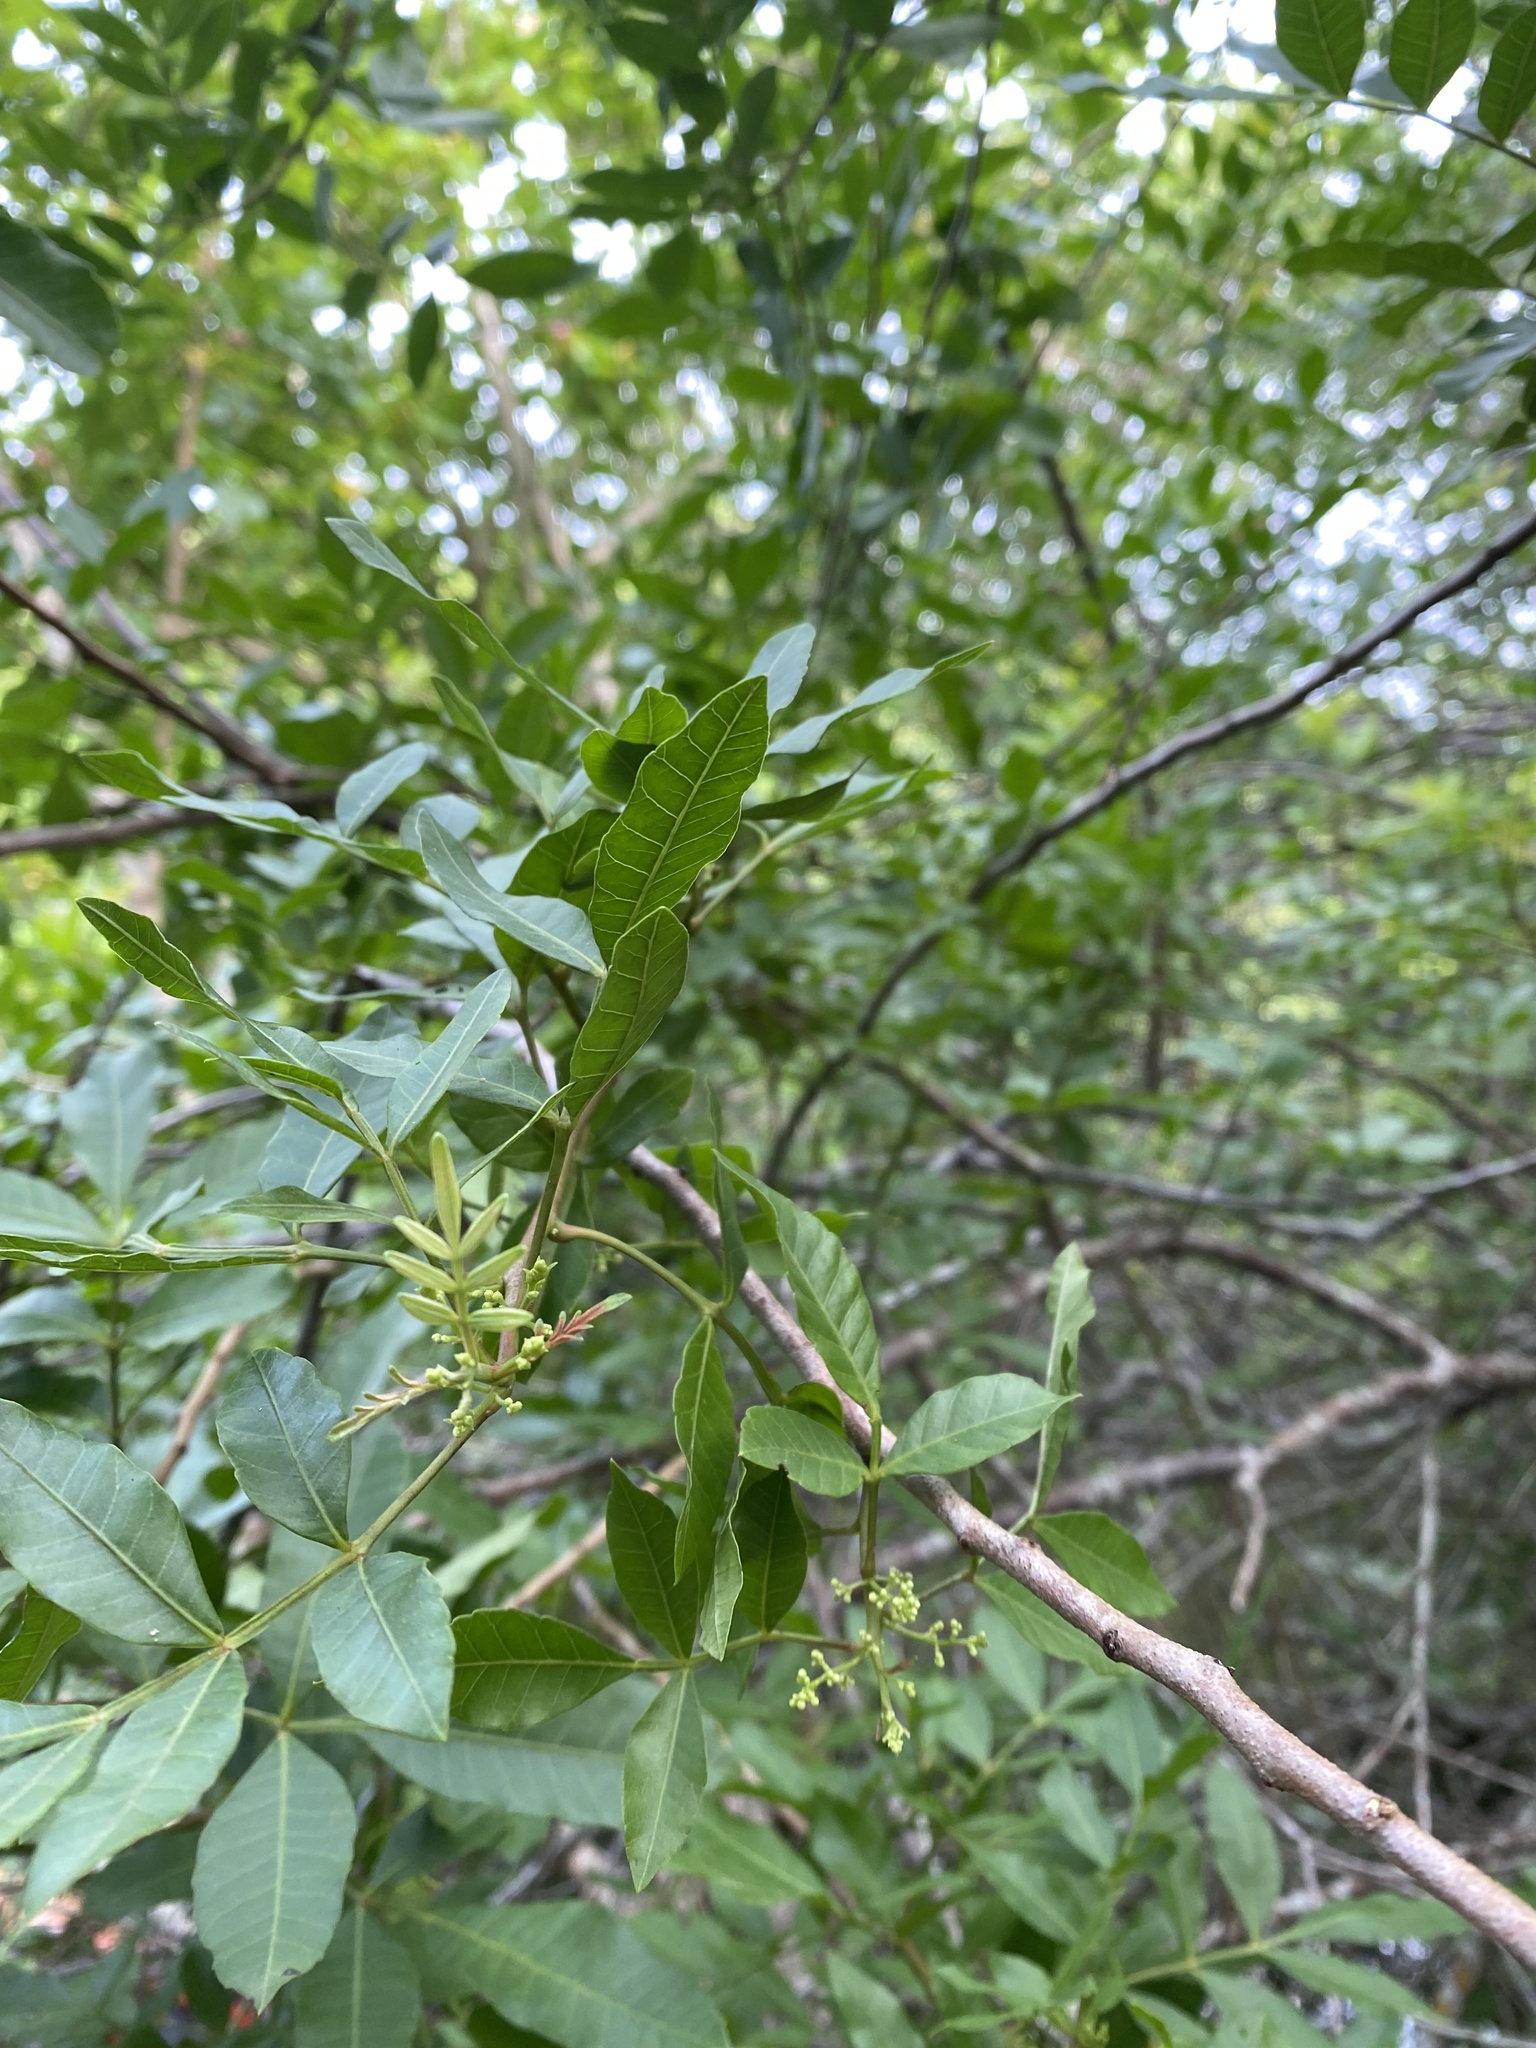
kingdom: Plantae
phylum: Tracheophyta
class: Magnoliopsida
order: Sapindales
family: Anacardiaceae
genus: Rhus
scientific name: Rhus copallina
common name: Shining sumac
